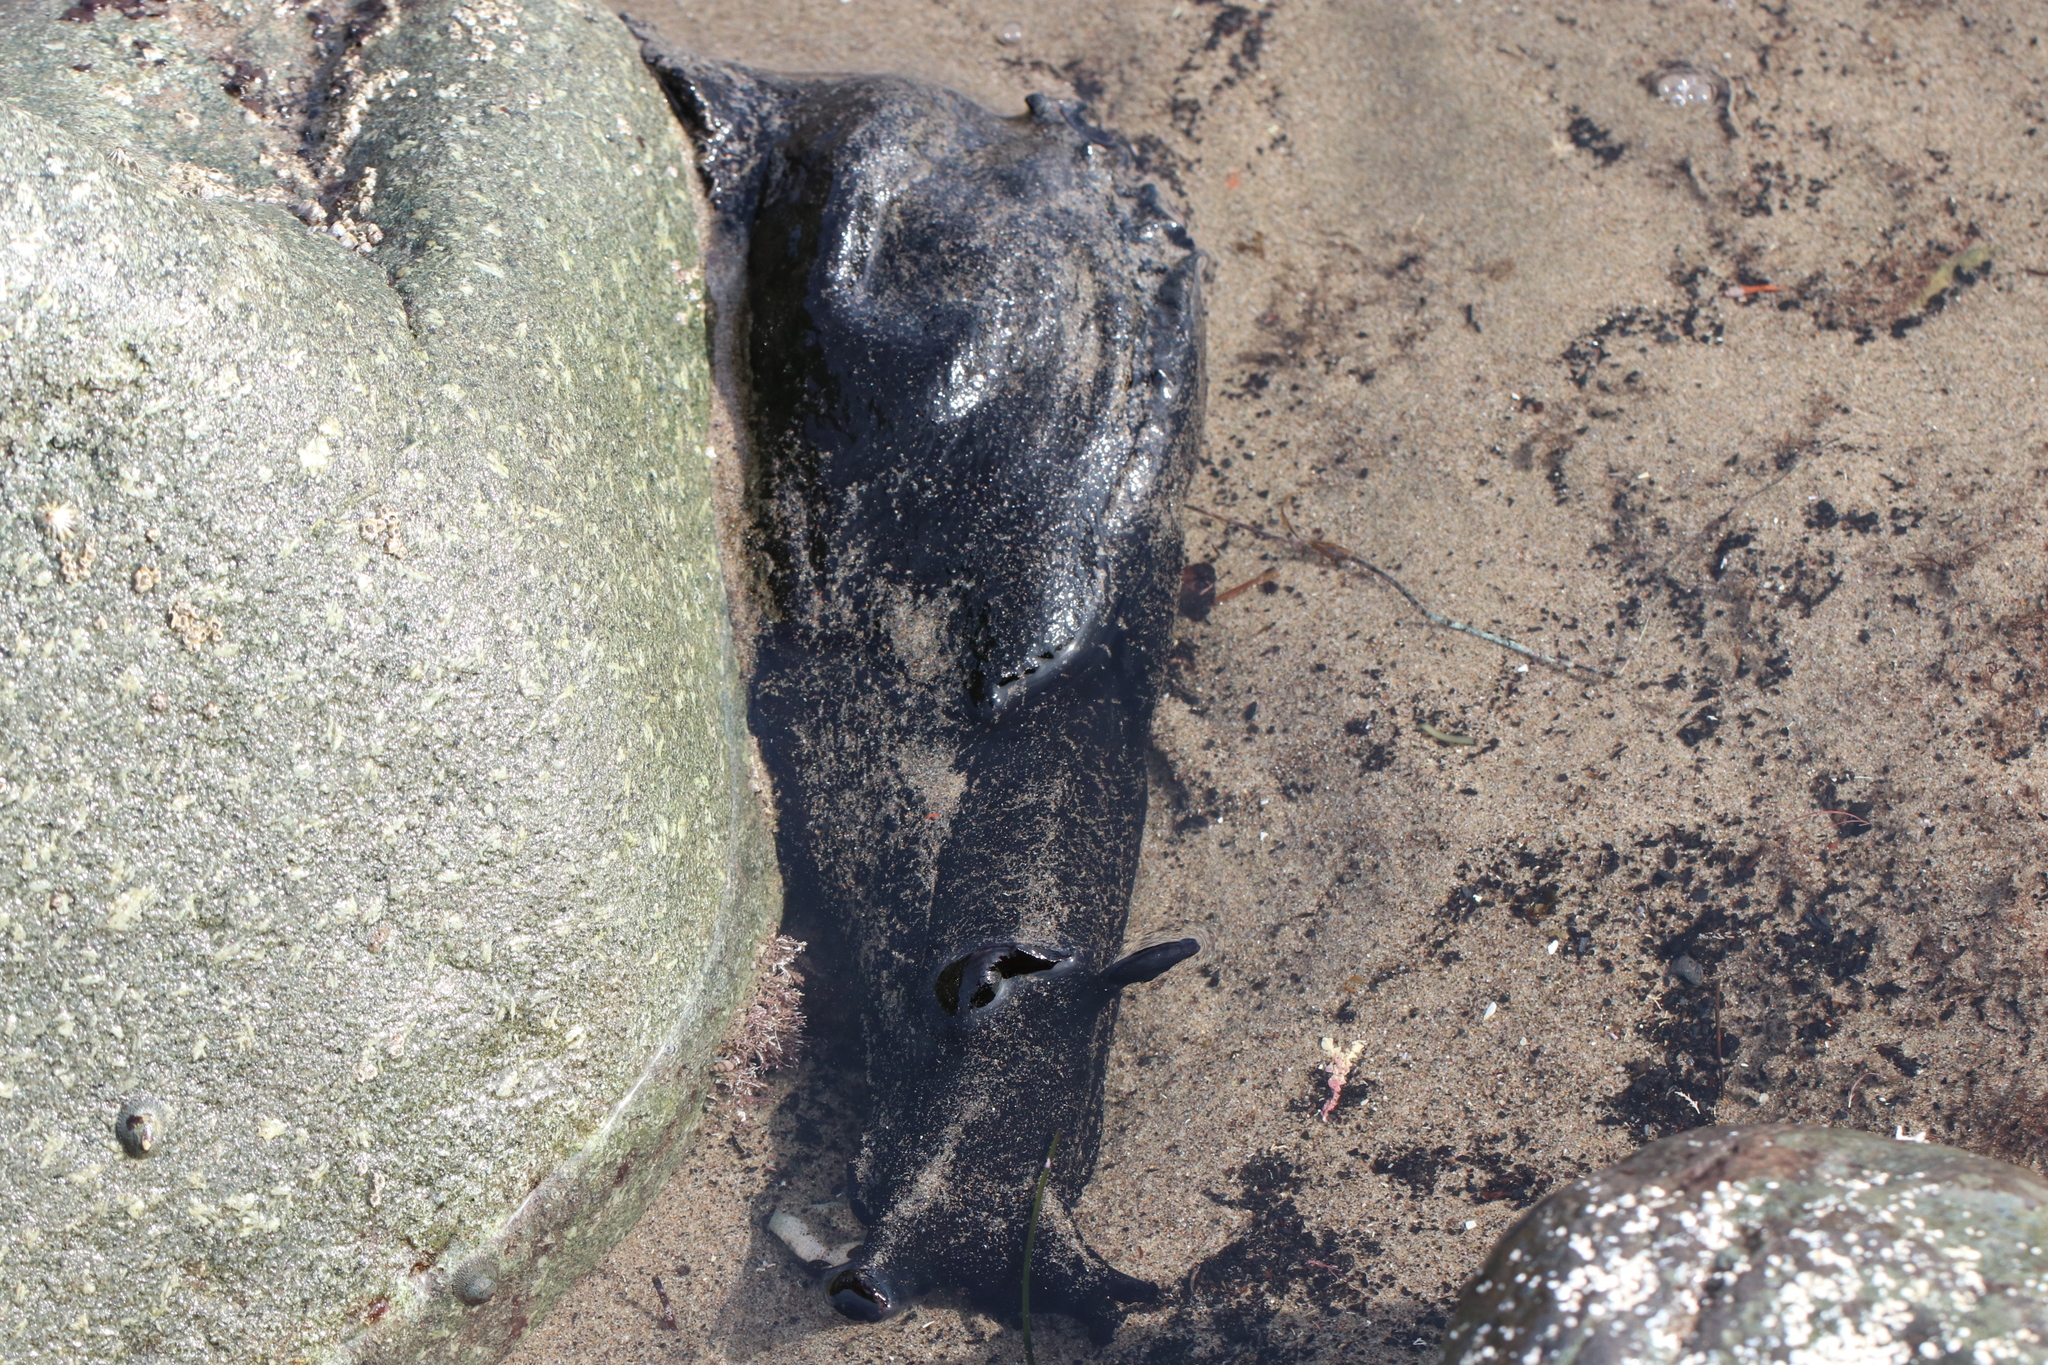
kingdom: Animalia
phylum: Mollusca
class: Gastropoda
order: Aplysiida
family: Aplysiidae
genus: Aplysia
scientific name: Aplysia vaccaria
